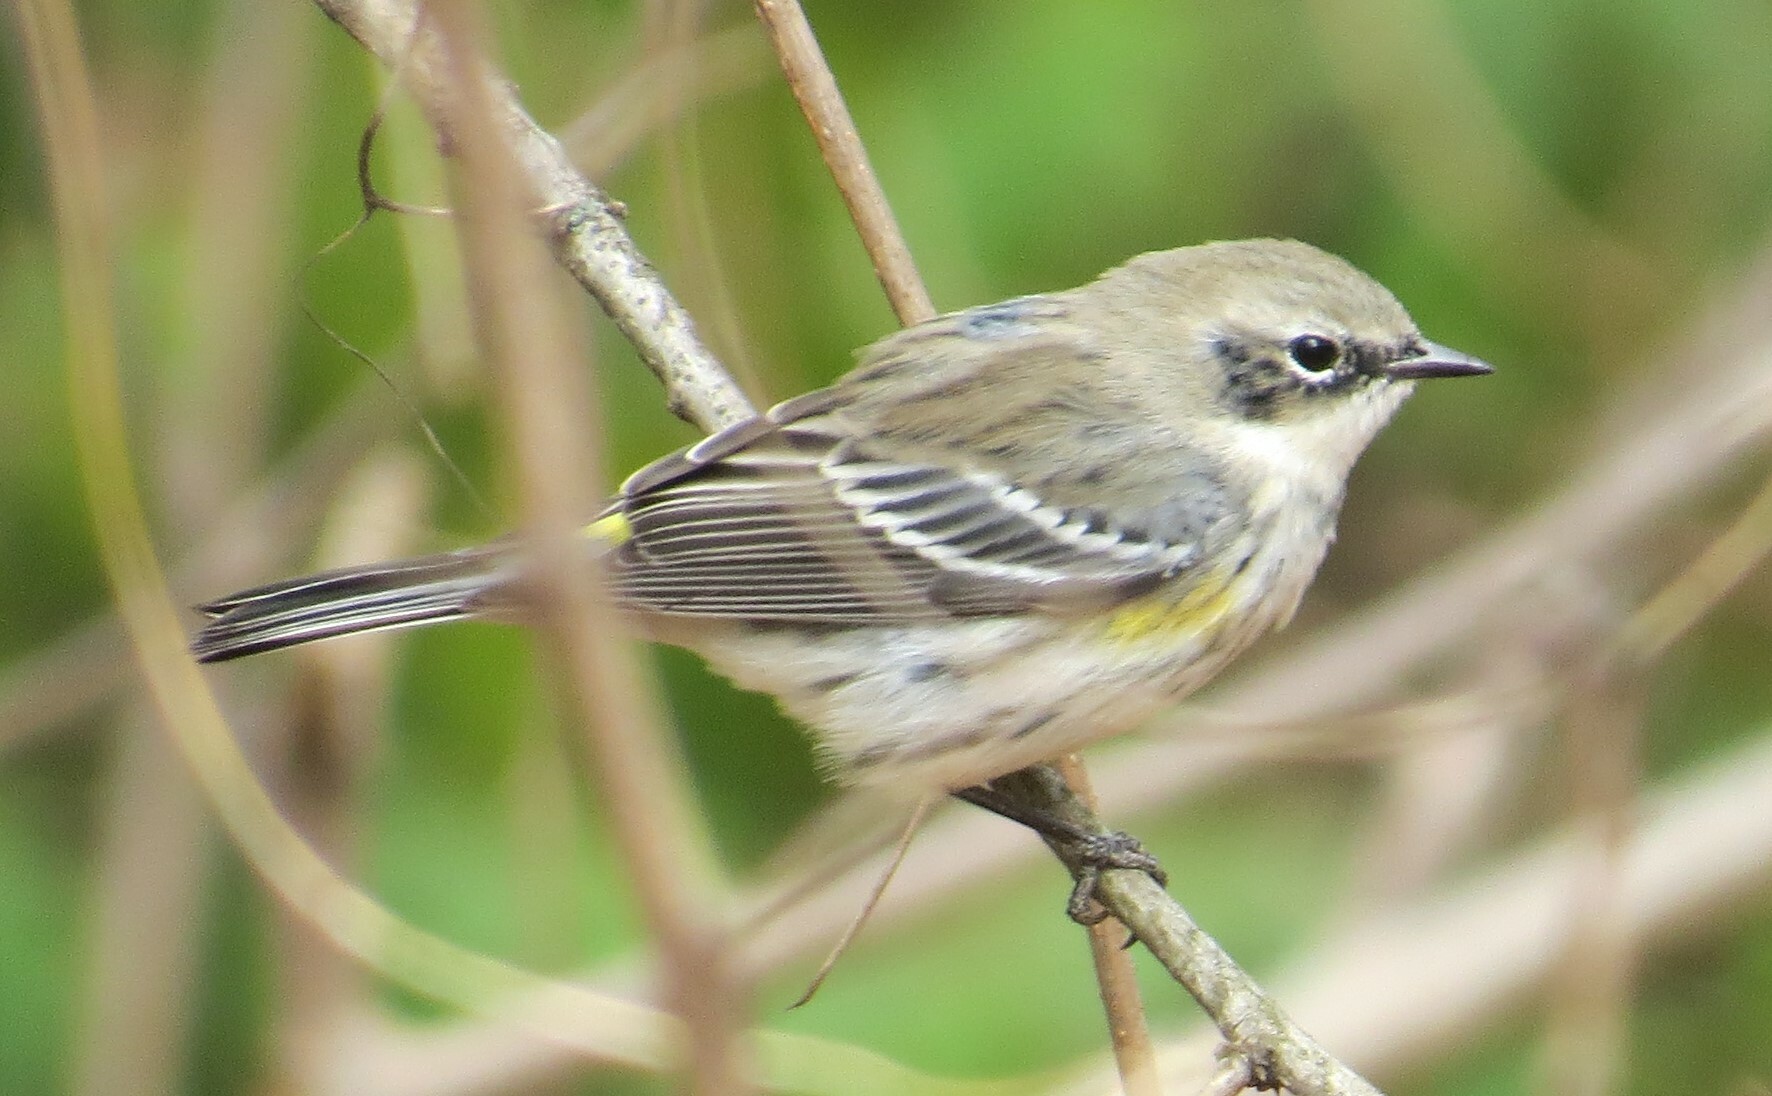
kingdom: Animalia
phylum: Chordata
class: Aves
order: Passeriformes
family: Parulidae
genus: Setophaga
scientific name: Setophaga coronata
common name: Myrtle warbler
